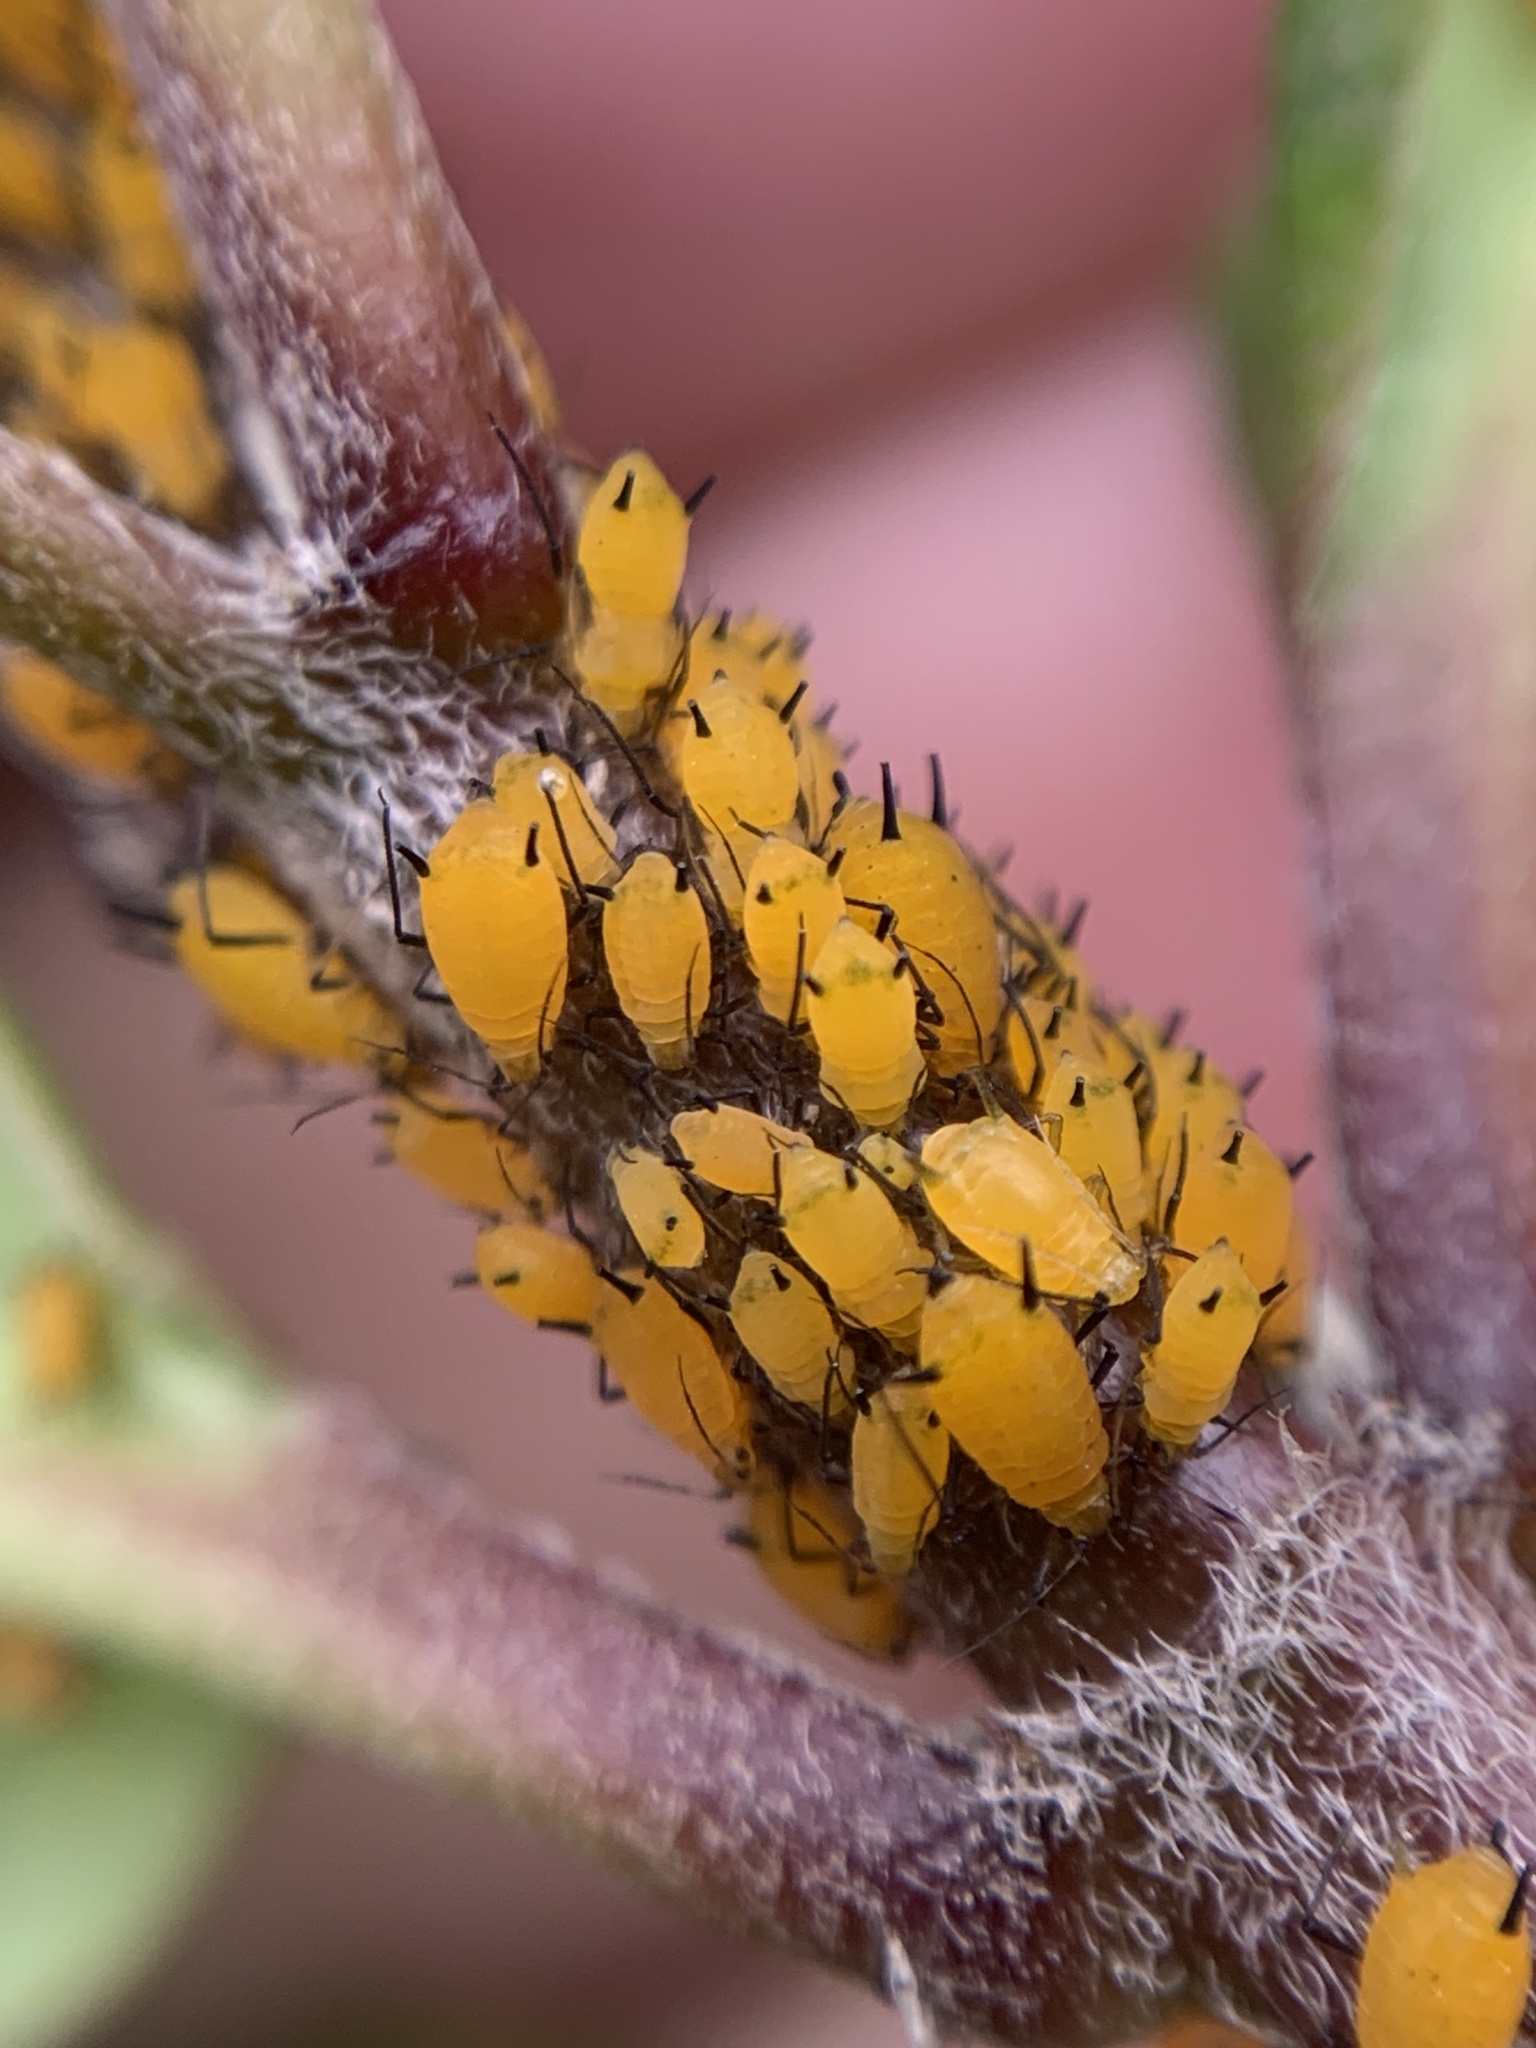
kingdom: Animalia
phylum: Arthropoda
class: Insecta
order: Hemiptera
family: Aphididae
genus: Aphis
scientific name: Aphis nerii
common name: Oleander aphid
